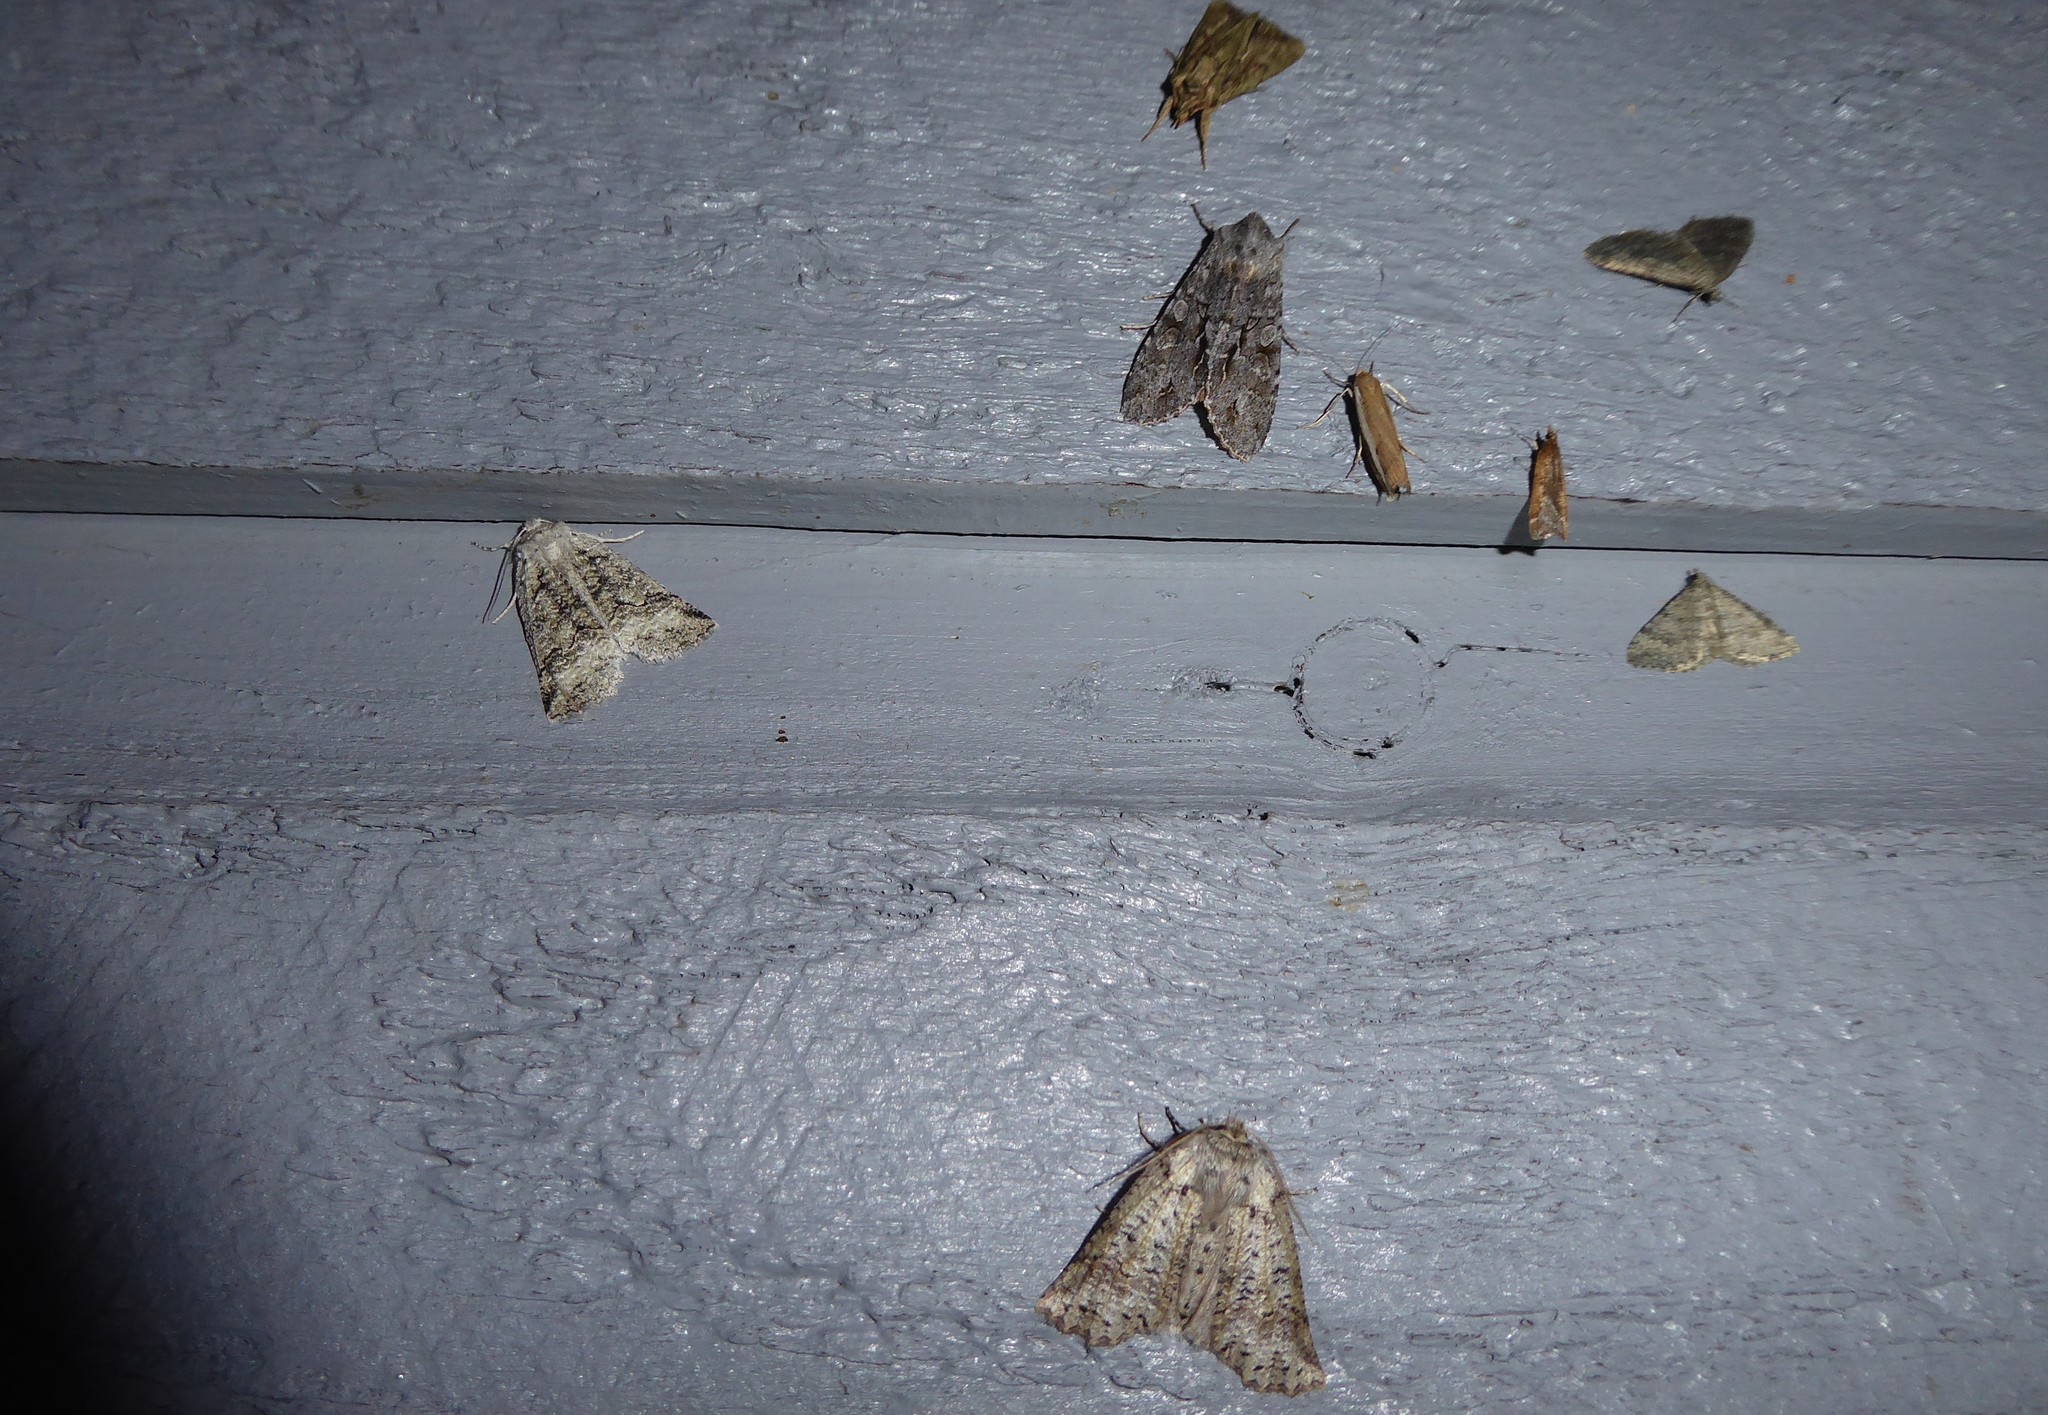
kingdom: Animalia
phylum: Arthropoda
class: Insecta
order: Lepidoptera
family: Geometridae
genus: Declana
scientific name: Declana floccosa
